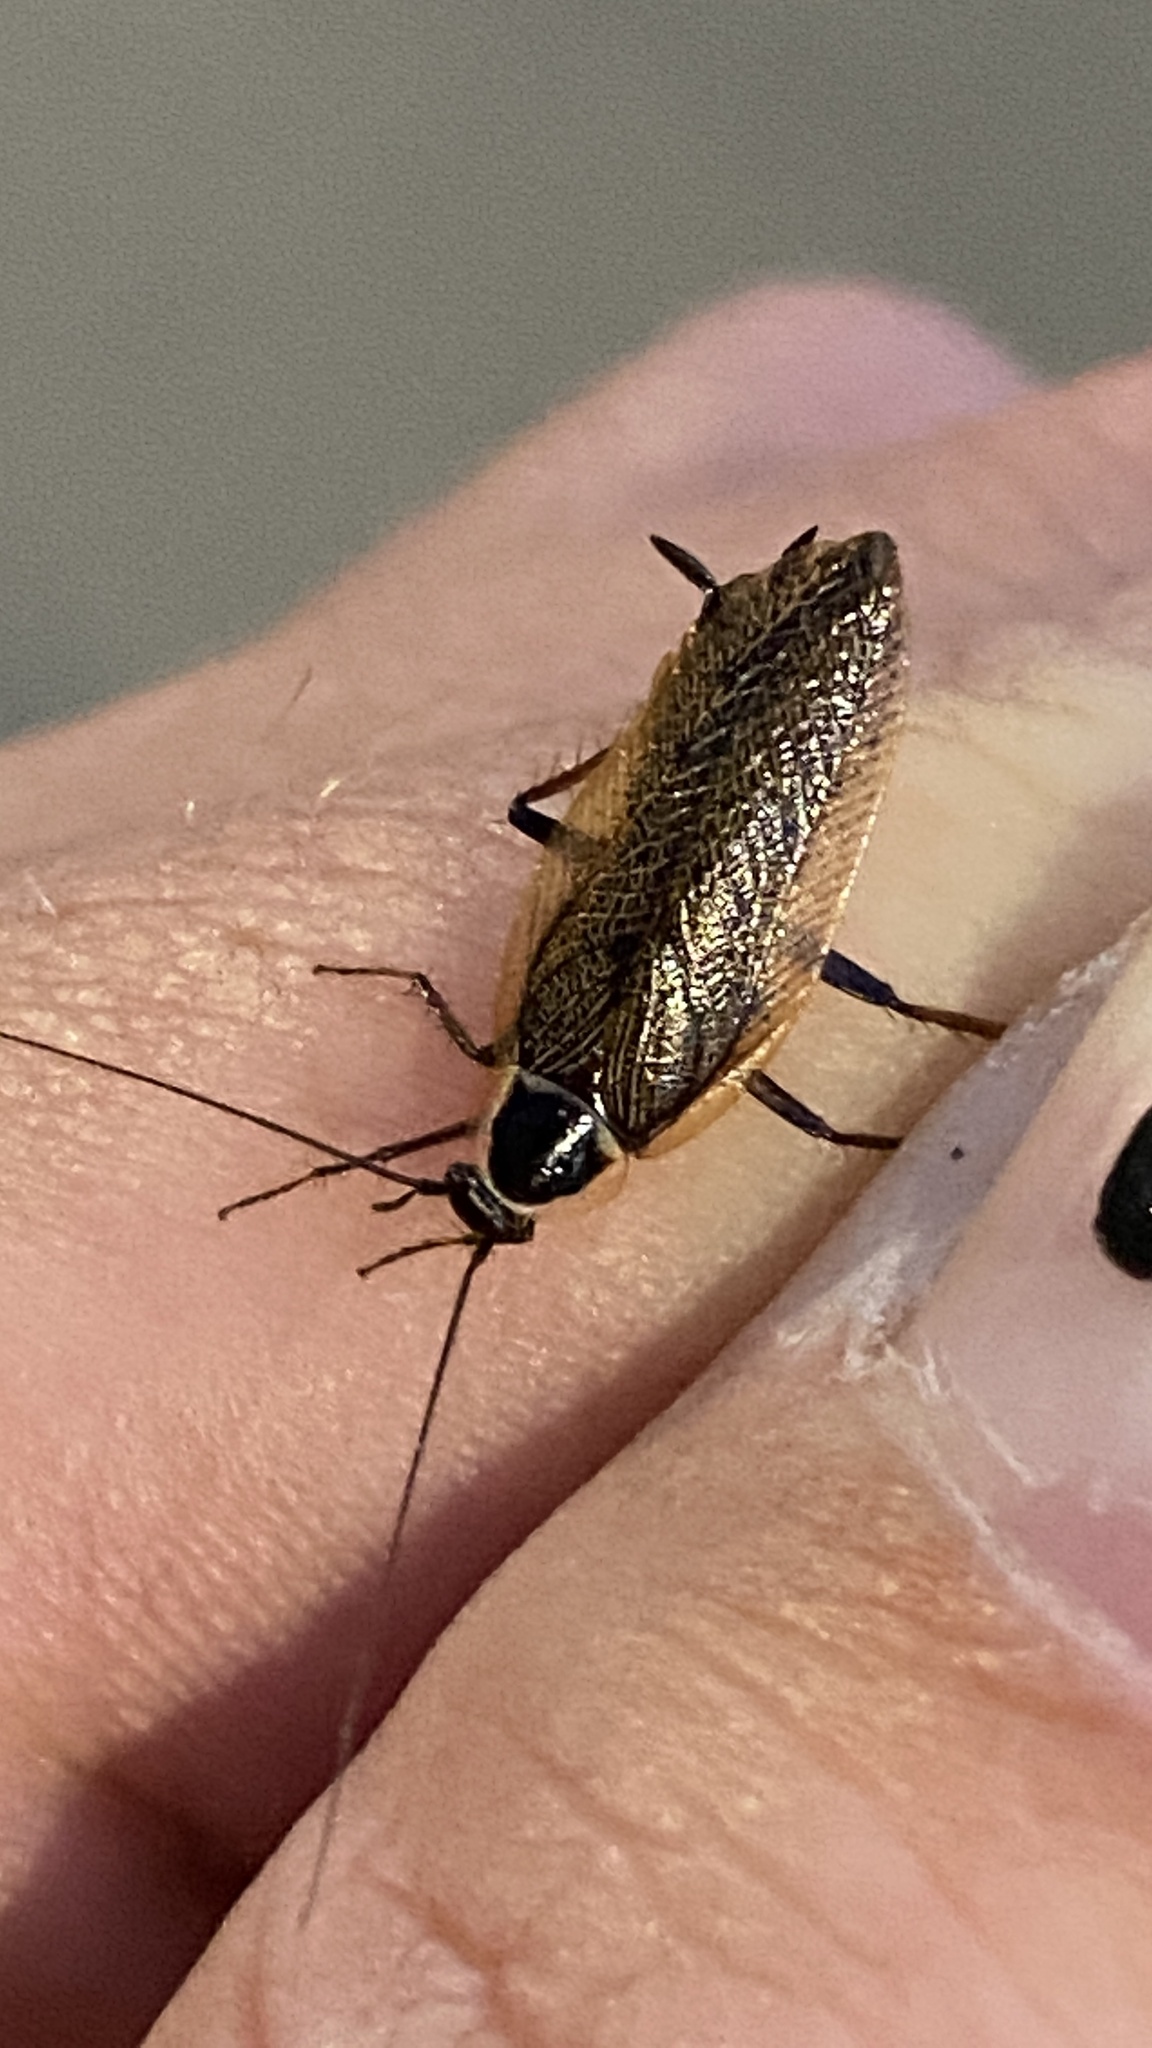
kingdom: Animalia
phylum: Arthropoda
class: Insecta
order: Blattodea
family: Ectobiidae
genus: Ectobius
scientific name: Ectobius sylvestris
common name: Forest cockroach
